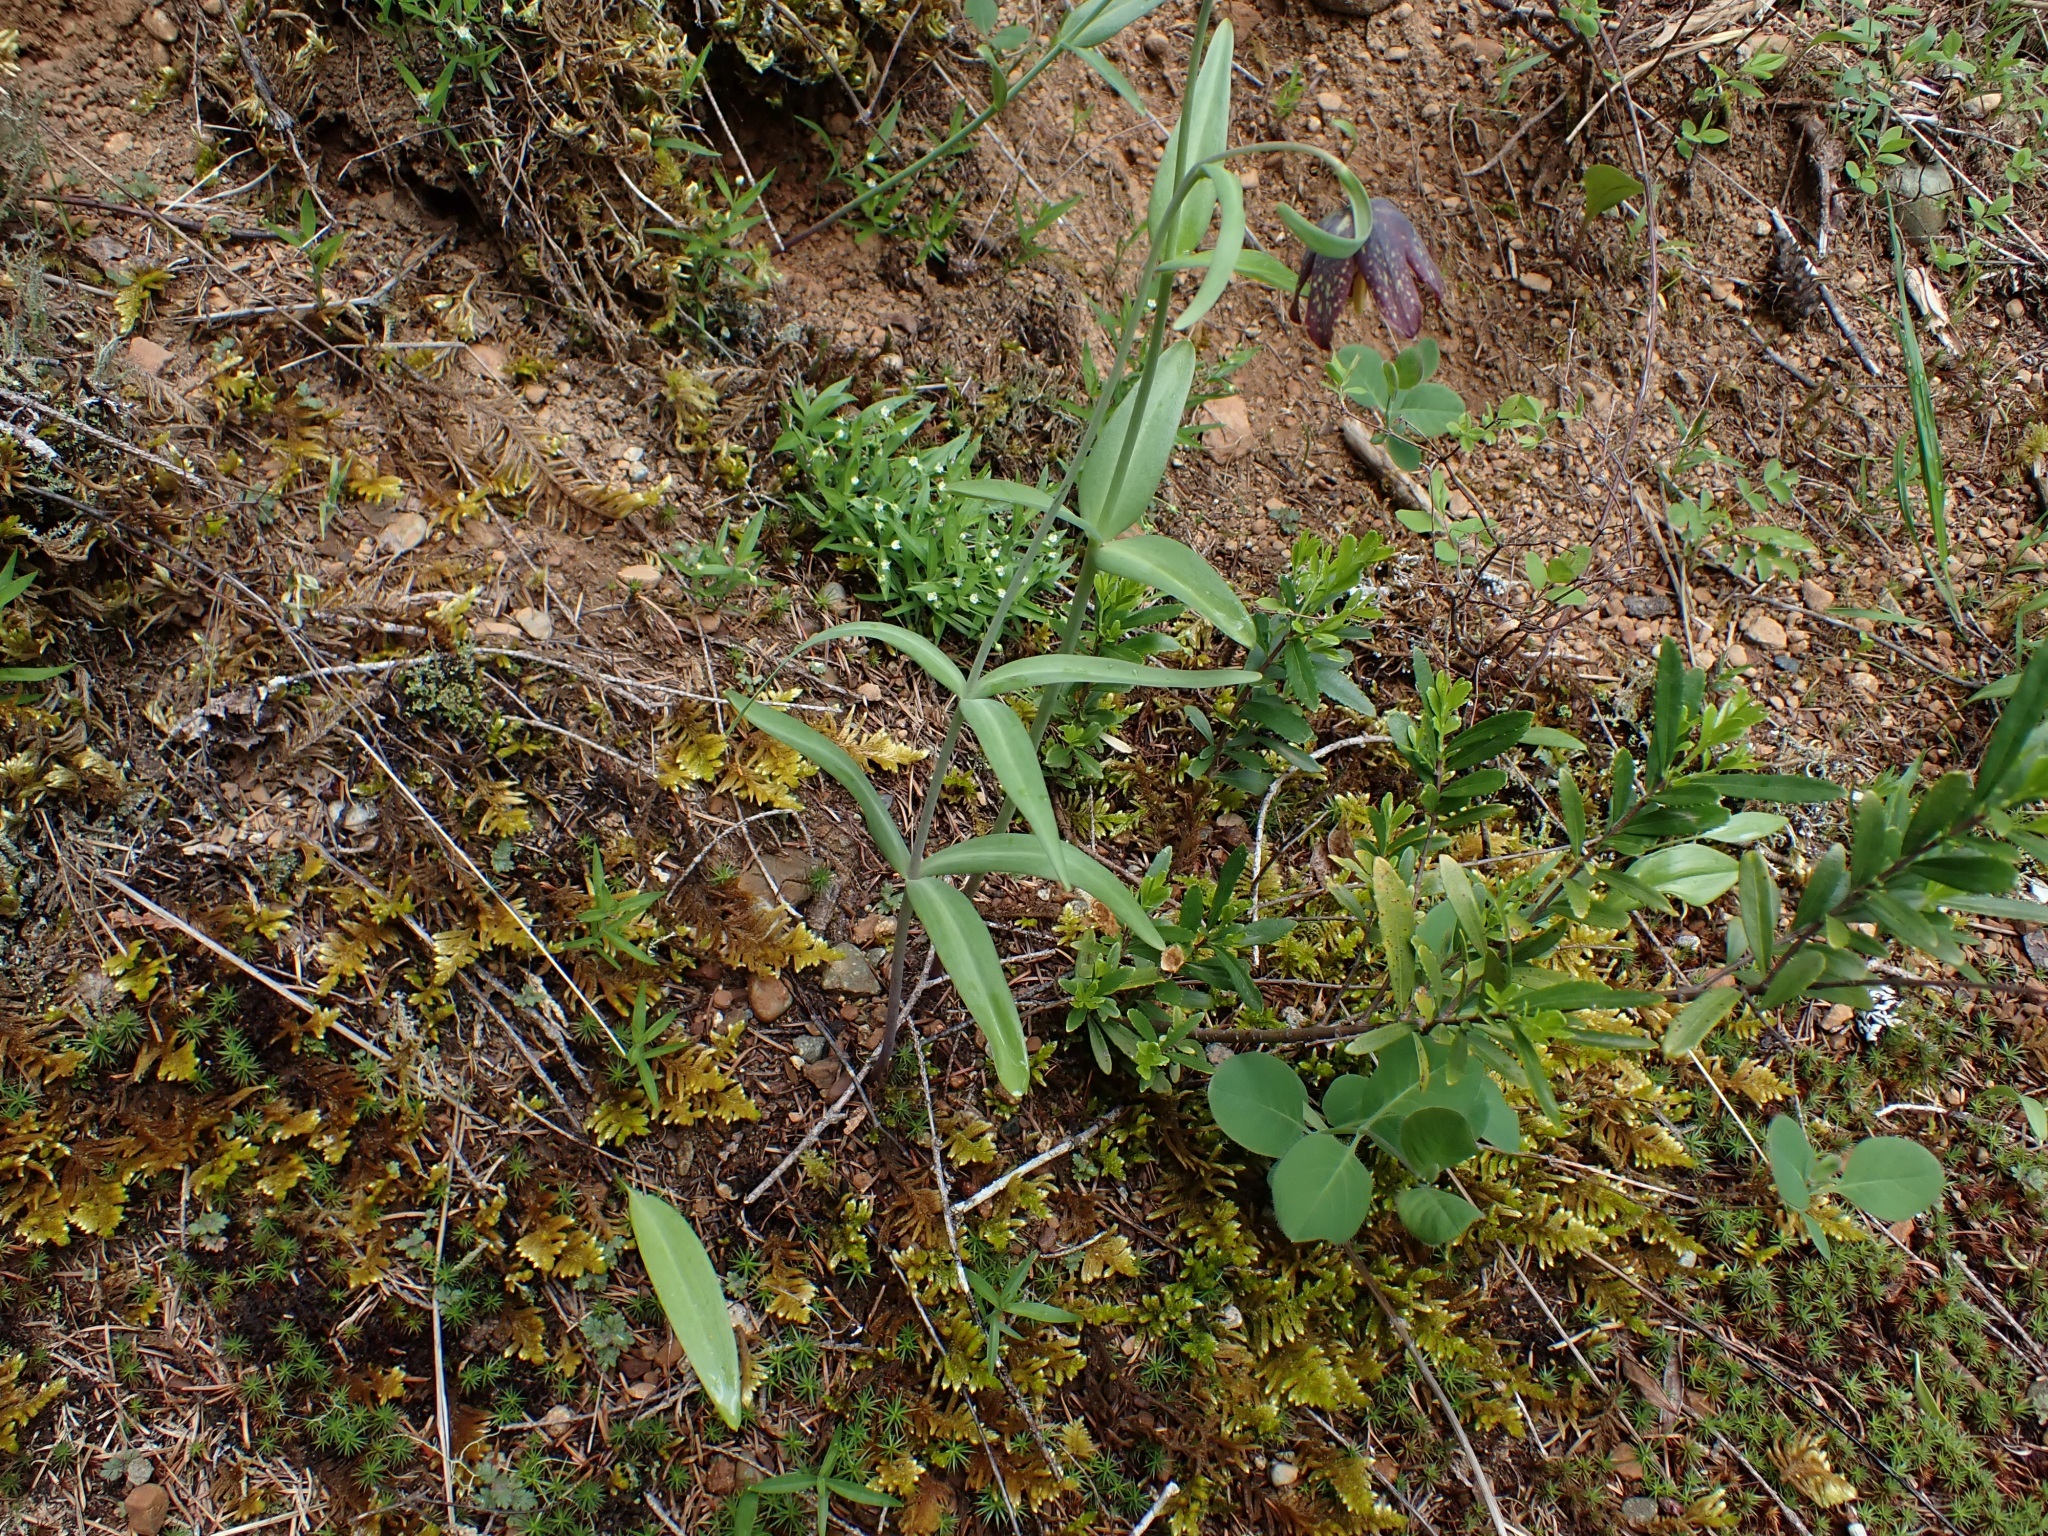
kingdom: Plantae
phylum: Tracheophyta
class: Liliopsida
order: Liliales
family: Liliaceae
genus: Fritillaria
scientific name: Fritillaria affinis
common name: Ojai fritillary
